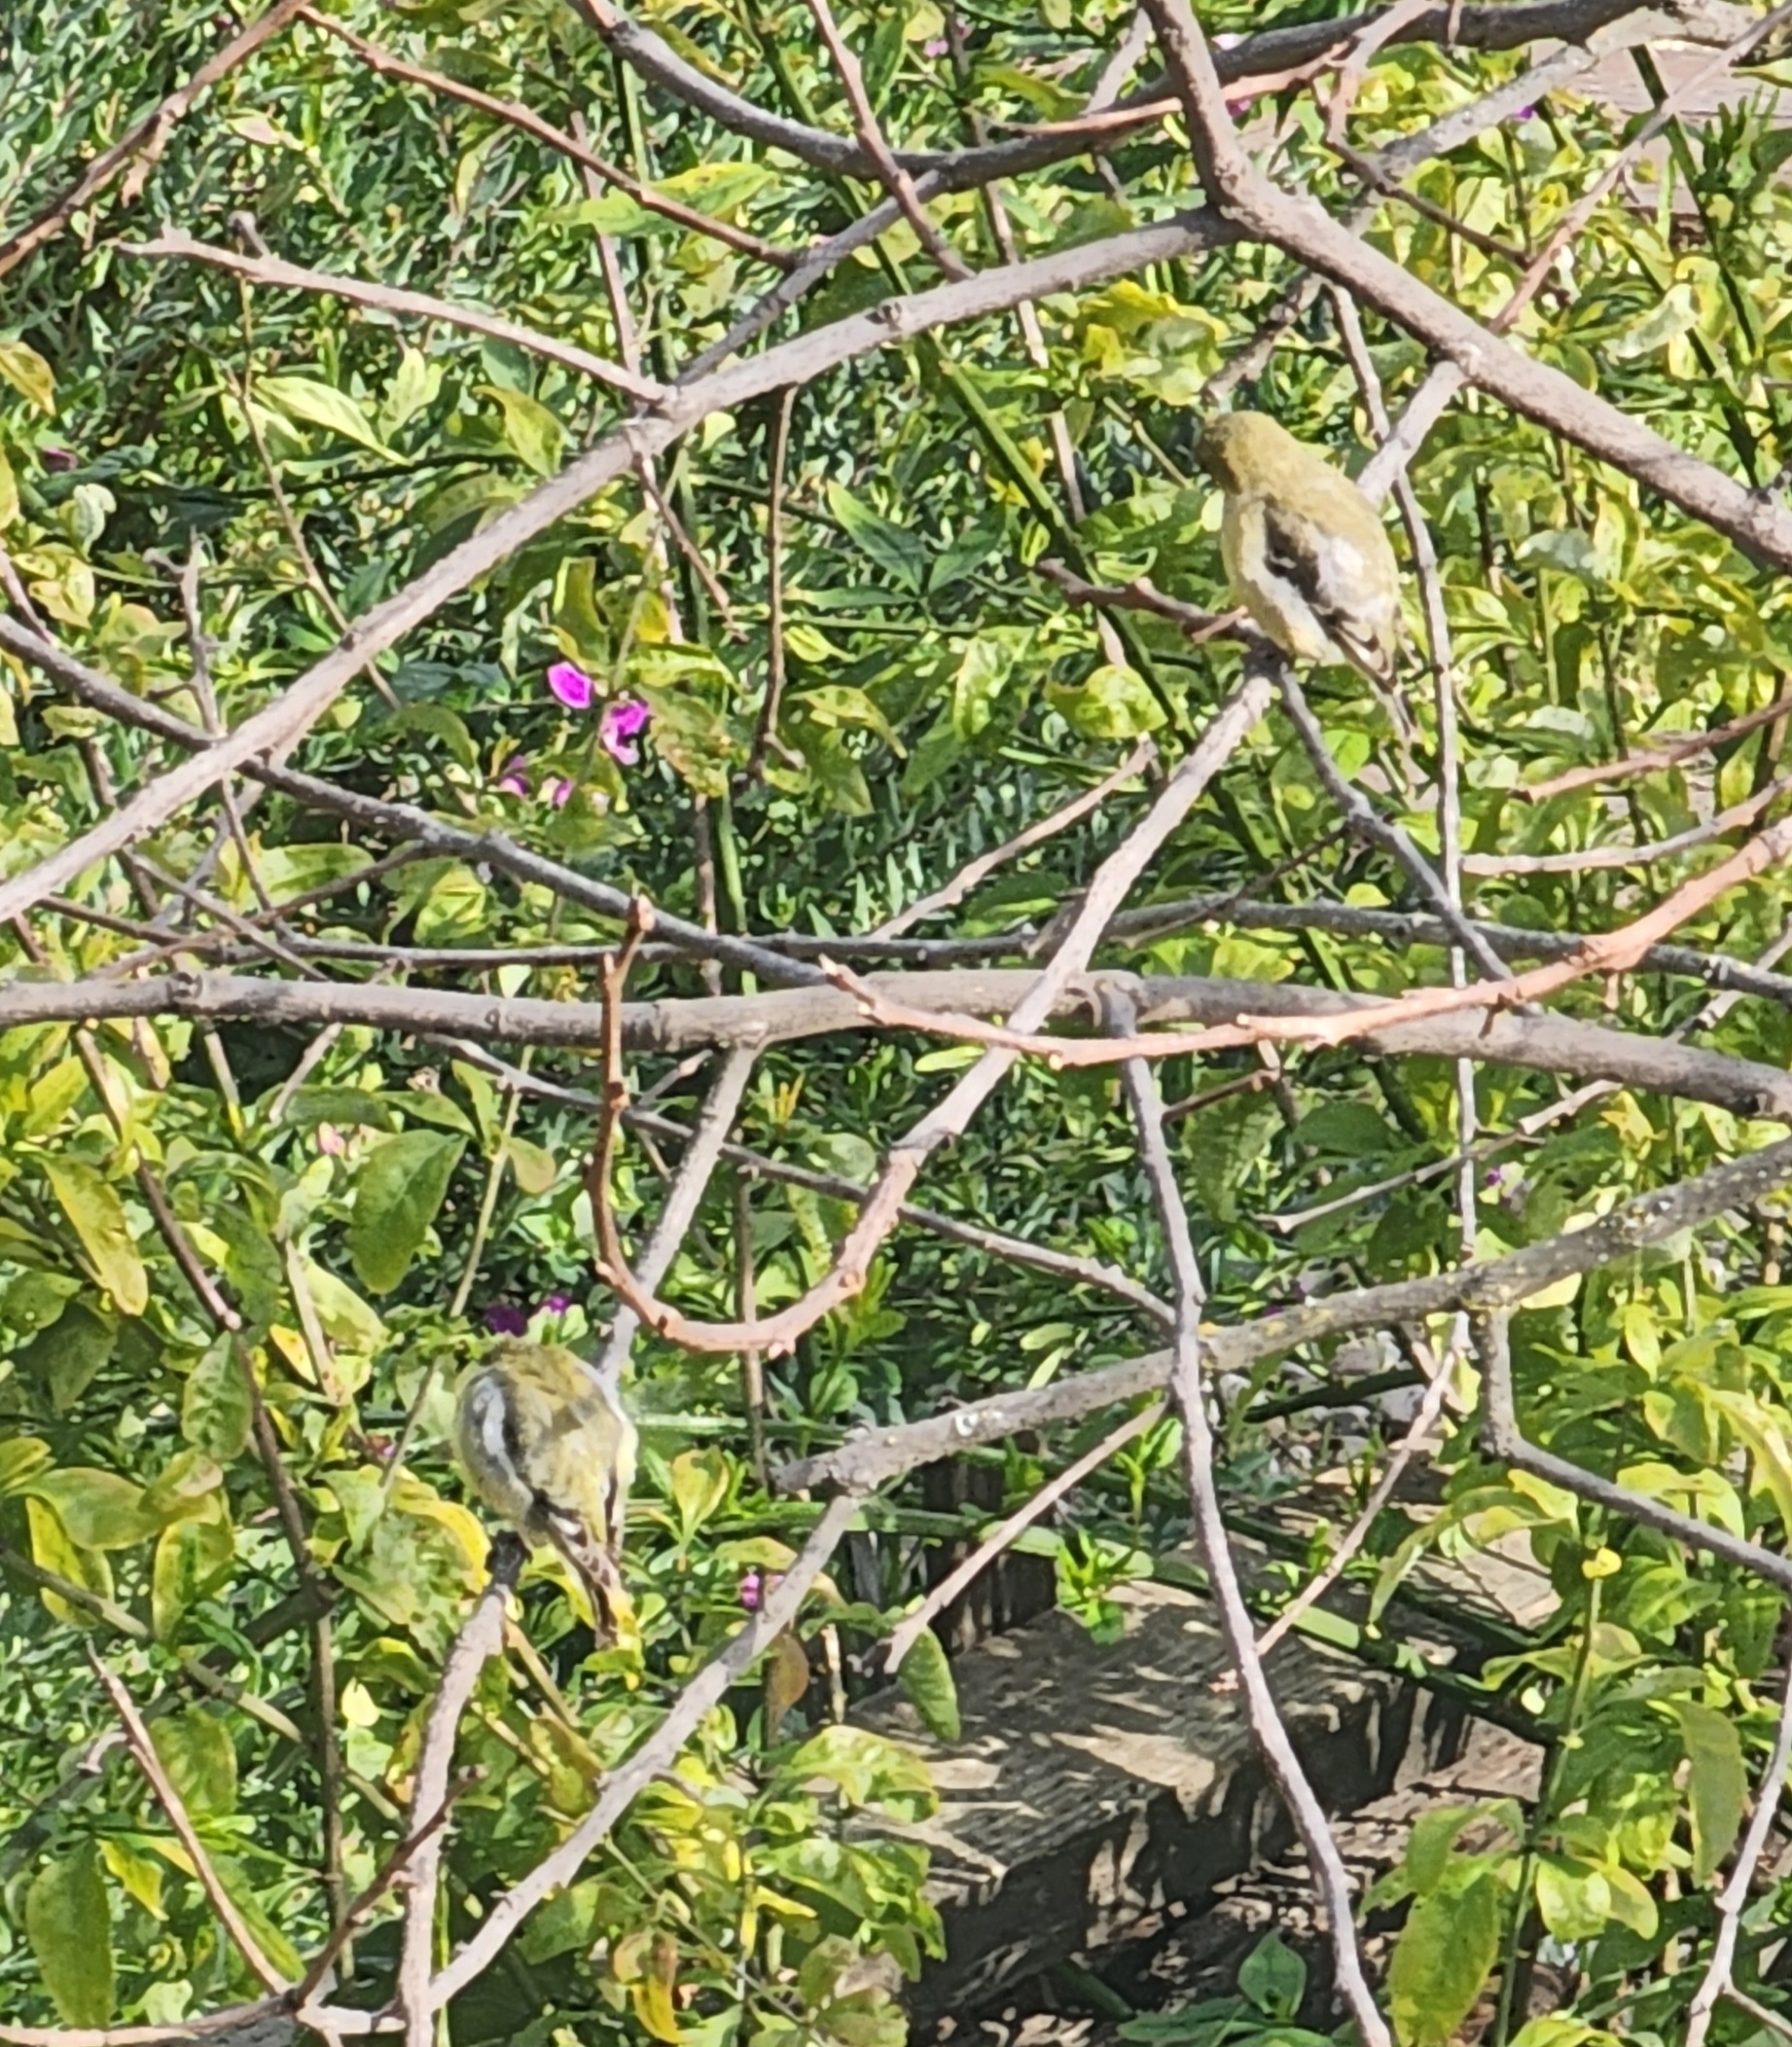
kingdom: Animalia
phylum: Chordata
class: Aves
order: Passeriformes
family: Fringillidae
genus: Spinus
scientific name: Spinus psaltria
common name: Lesser goldfinch
